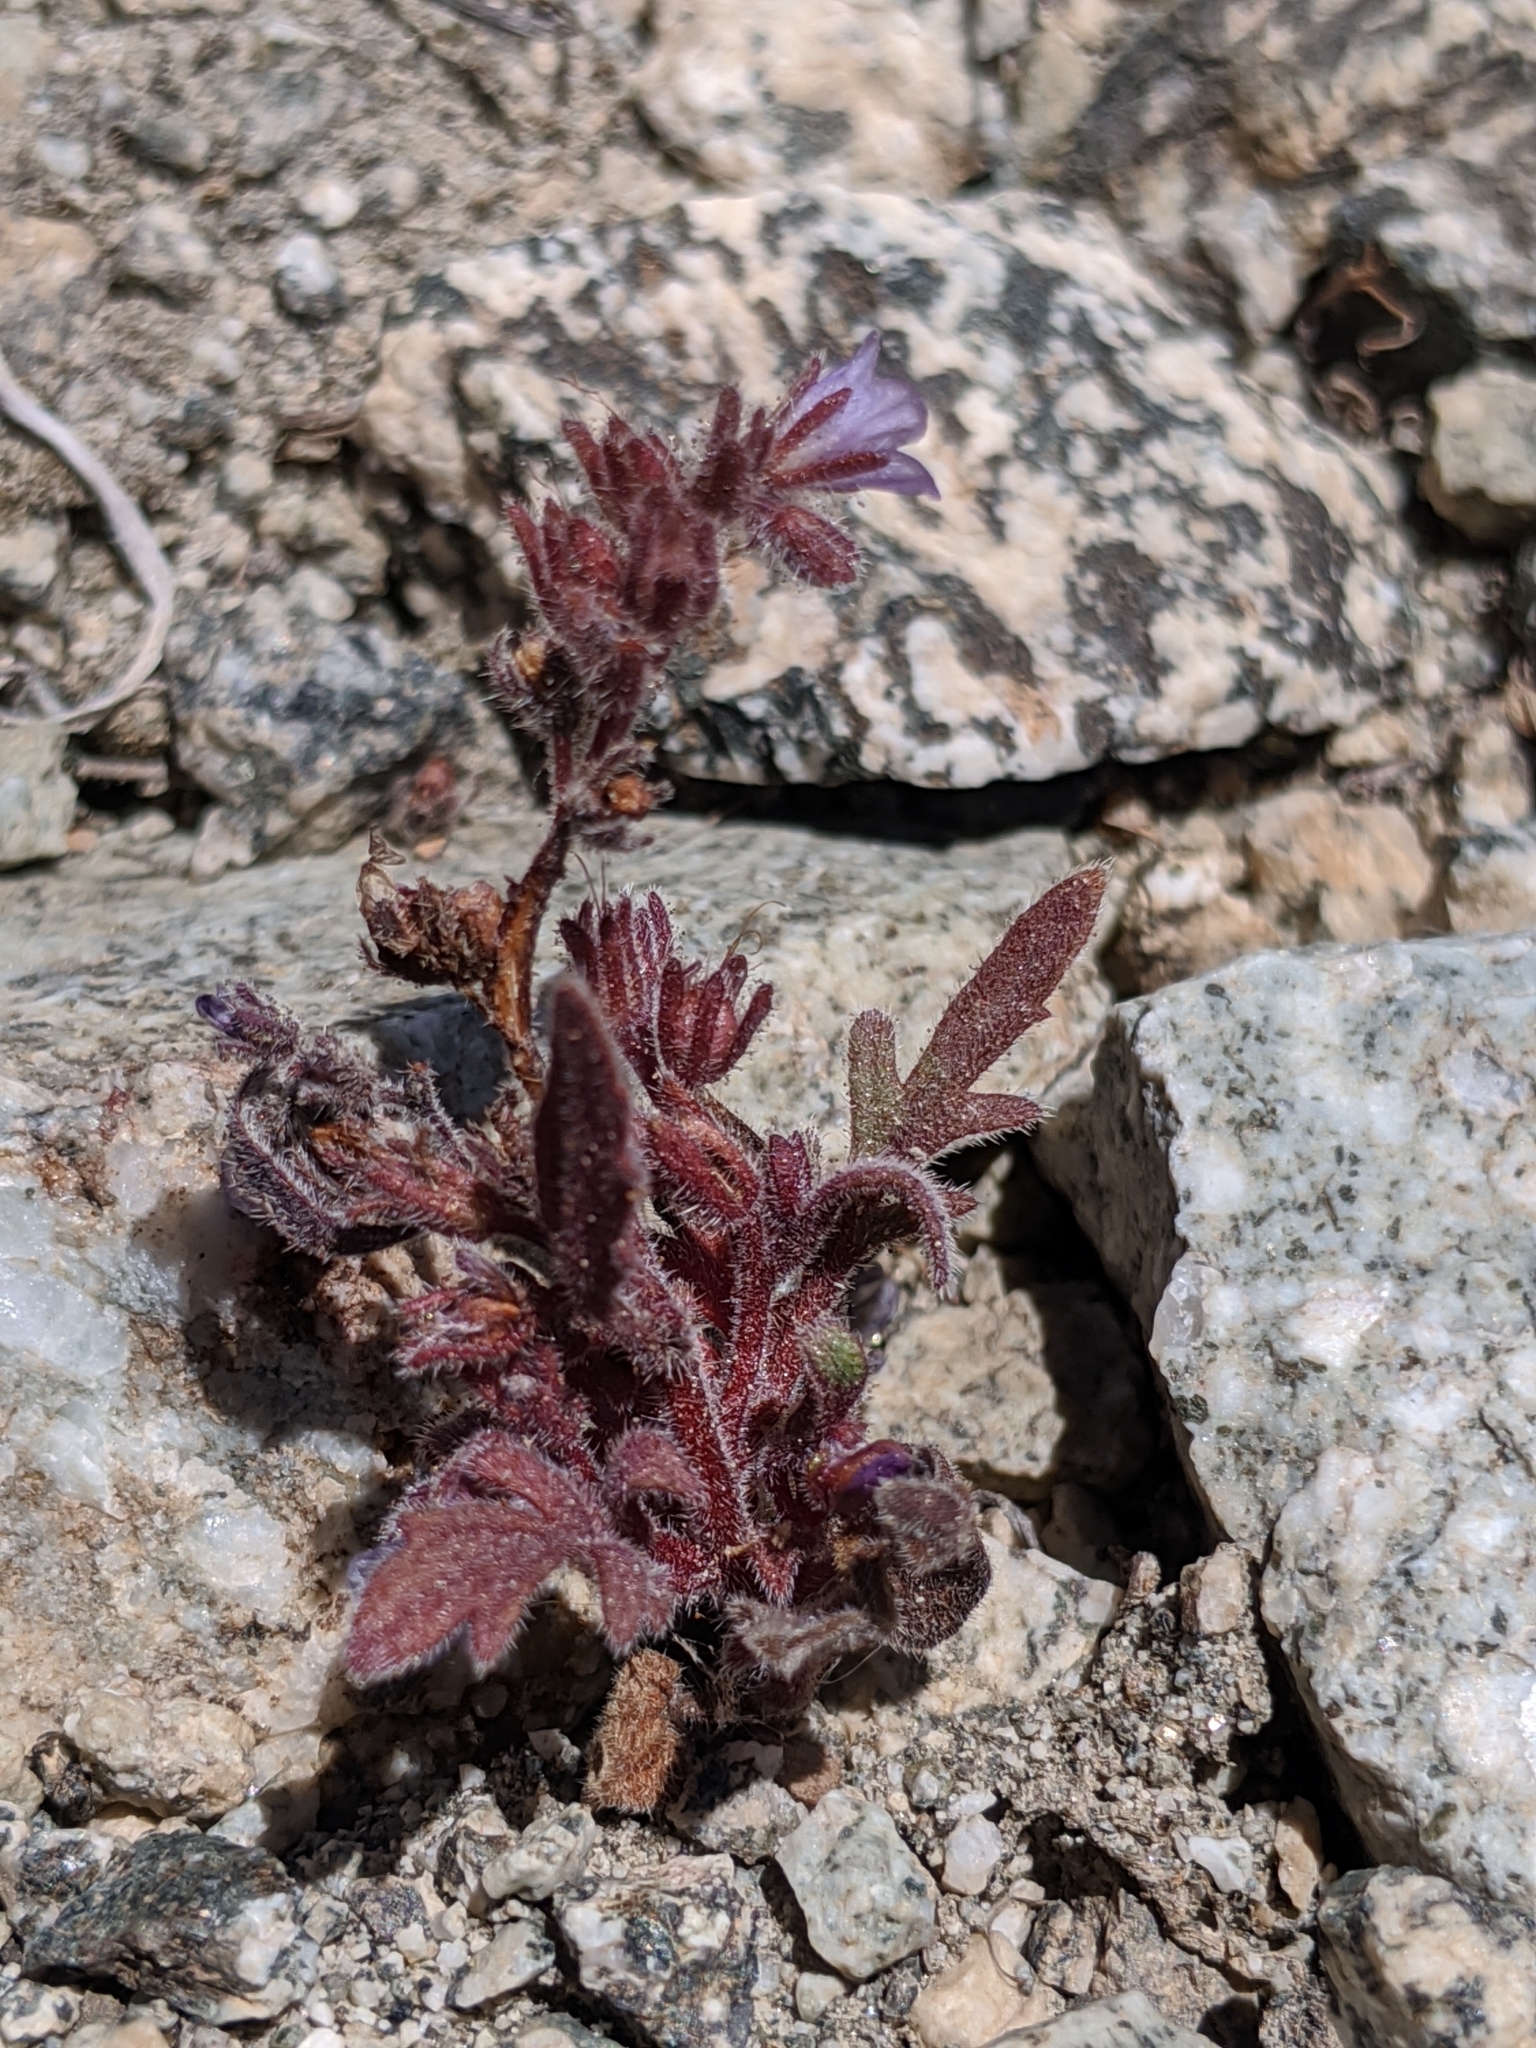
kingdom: Plantae
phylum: Tracheophyta
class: Magnoliopsida
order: Boraginales
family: Hydrophyllaceae
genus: Phacelia
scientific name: Phacelia austromontana
